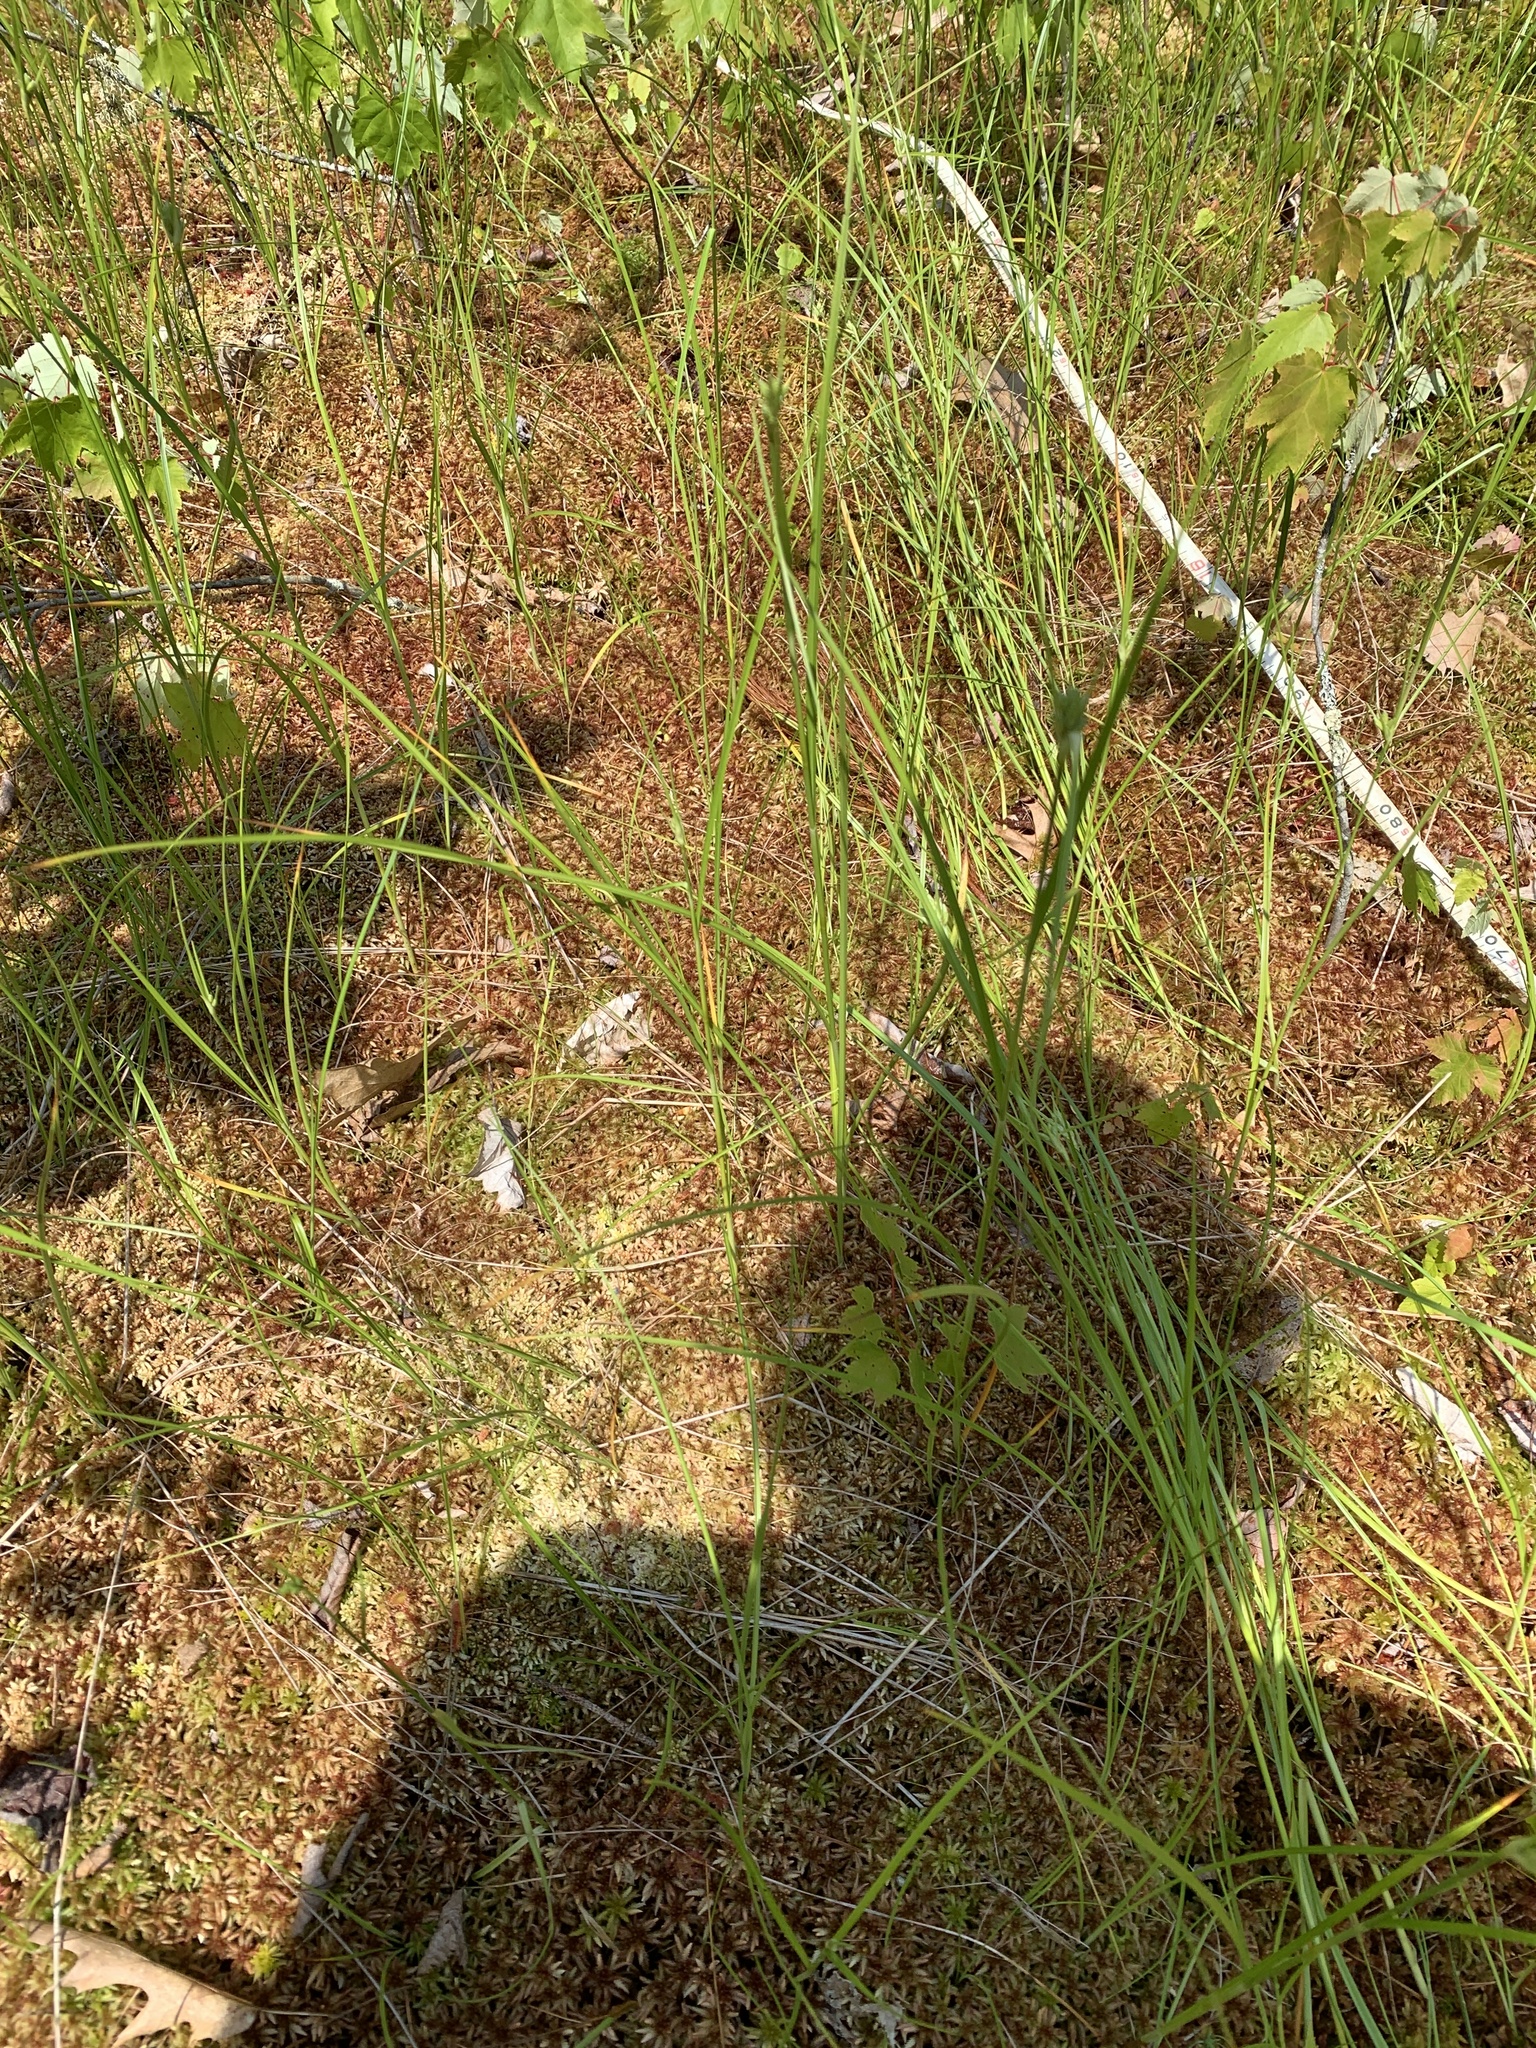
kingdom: Plantae
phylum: Tracheophyta
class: Liliopsida
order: Poales
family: Cyperaceae
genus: Eriophorum
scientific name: Eriophorum virginicum
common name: Tawny cottongrass
